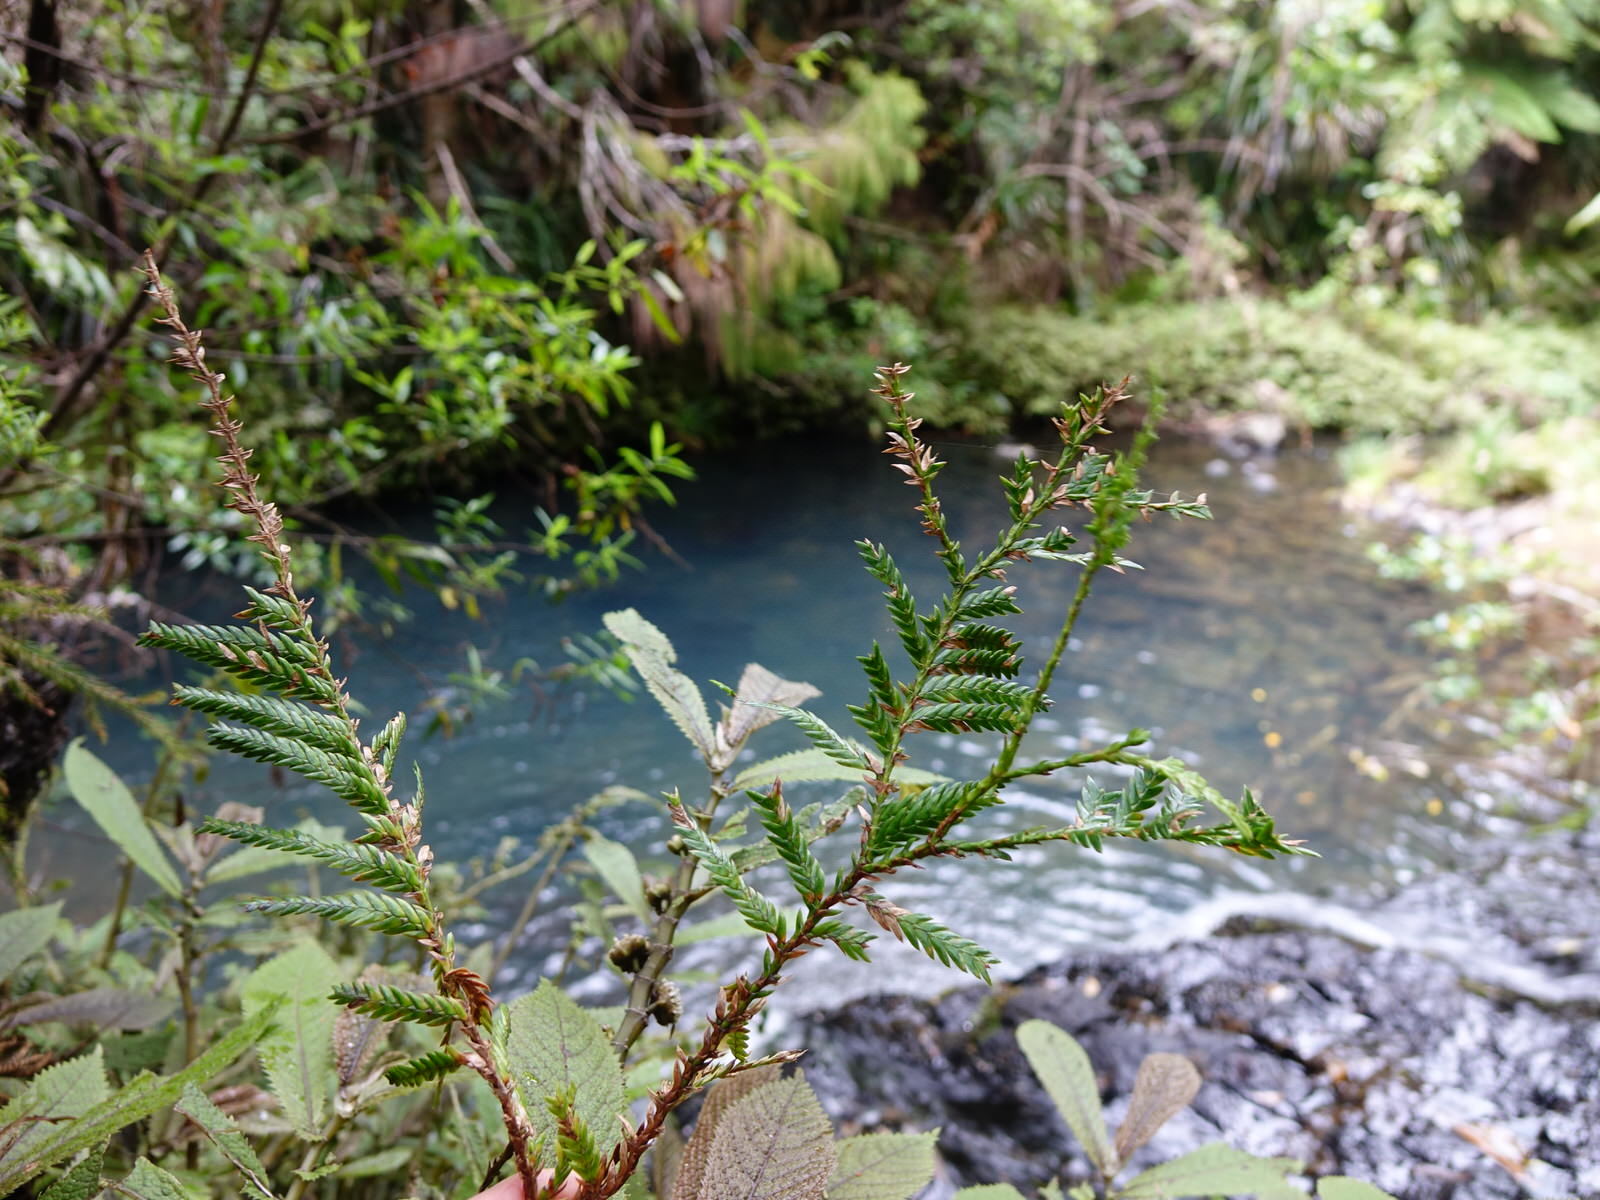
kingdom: Plantae
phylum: Tracheophyta
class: Pinopsida
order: Pinales
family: Cupressaceae
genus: Libocedrus
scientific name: Libocedrus plumosa
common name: New zealand cedar
